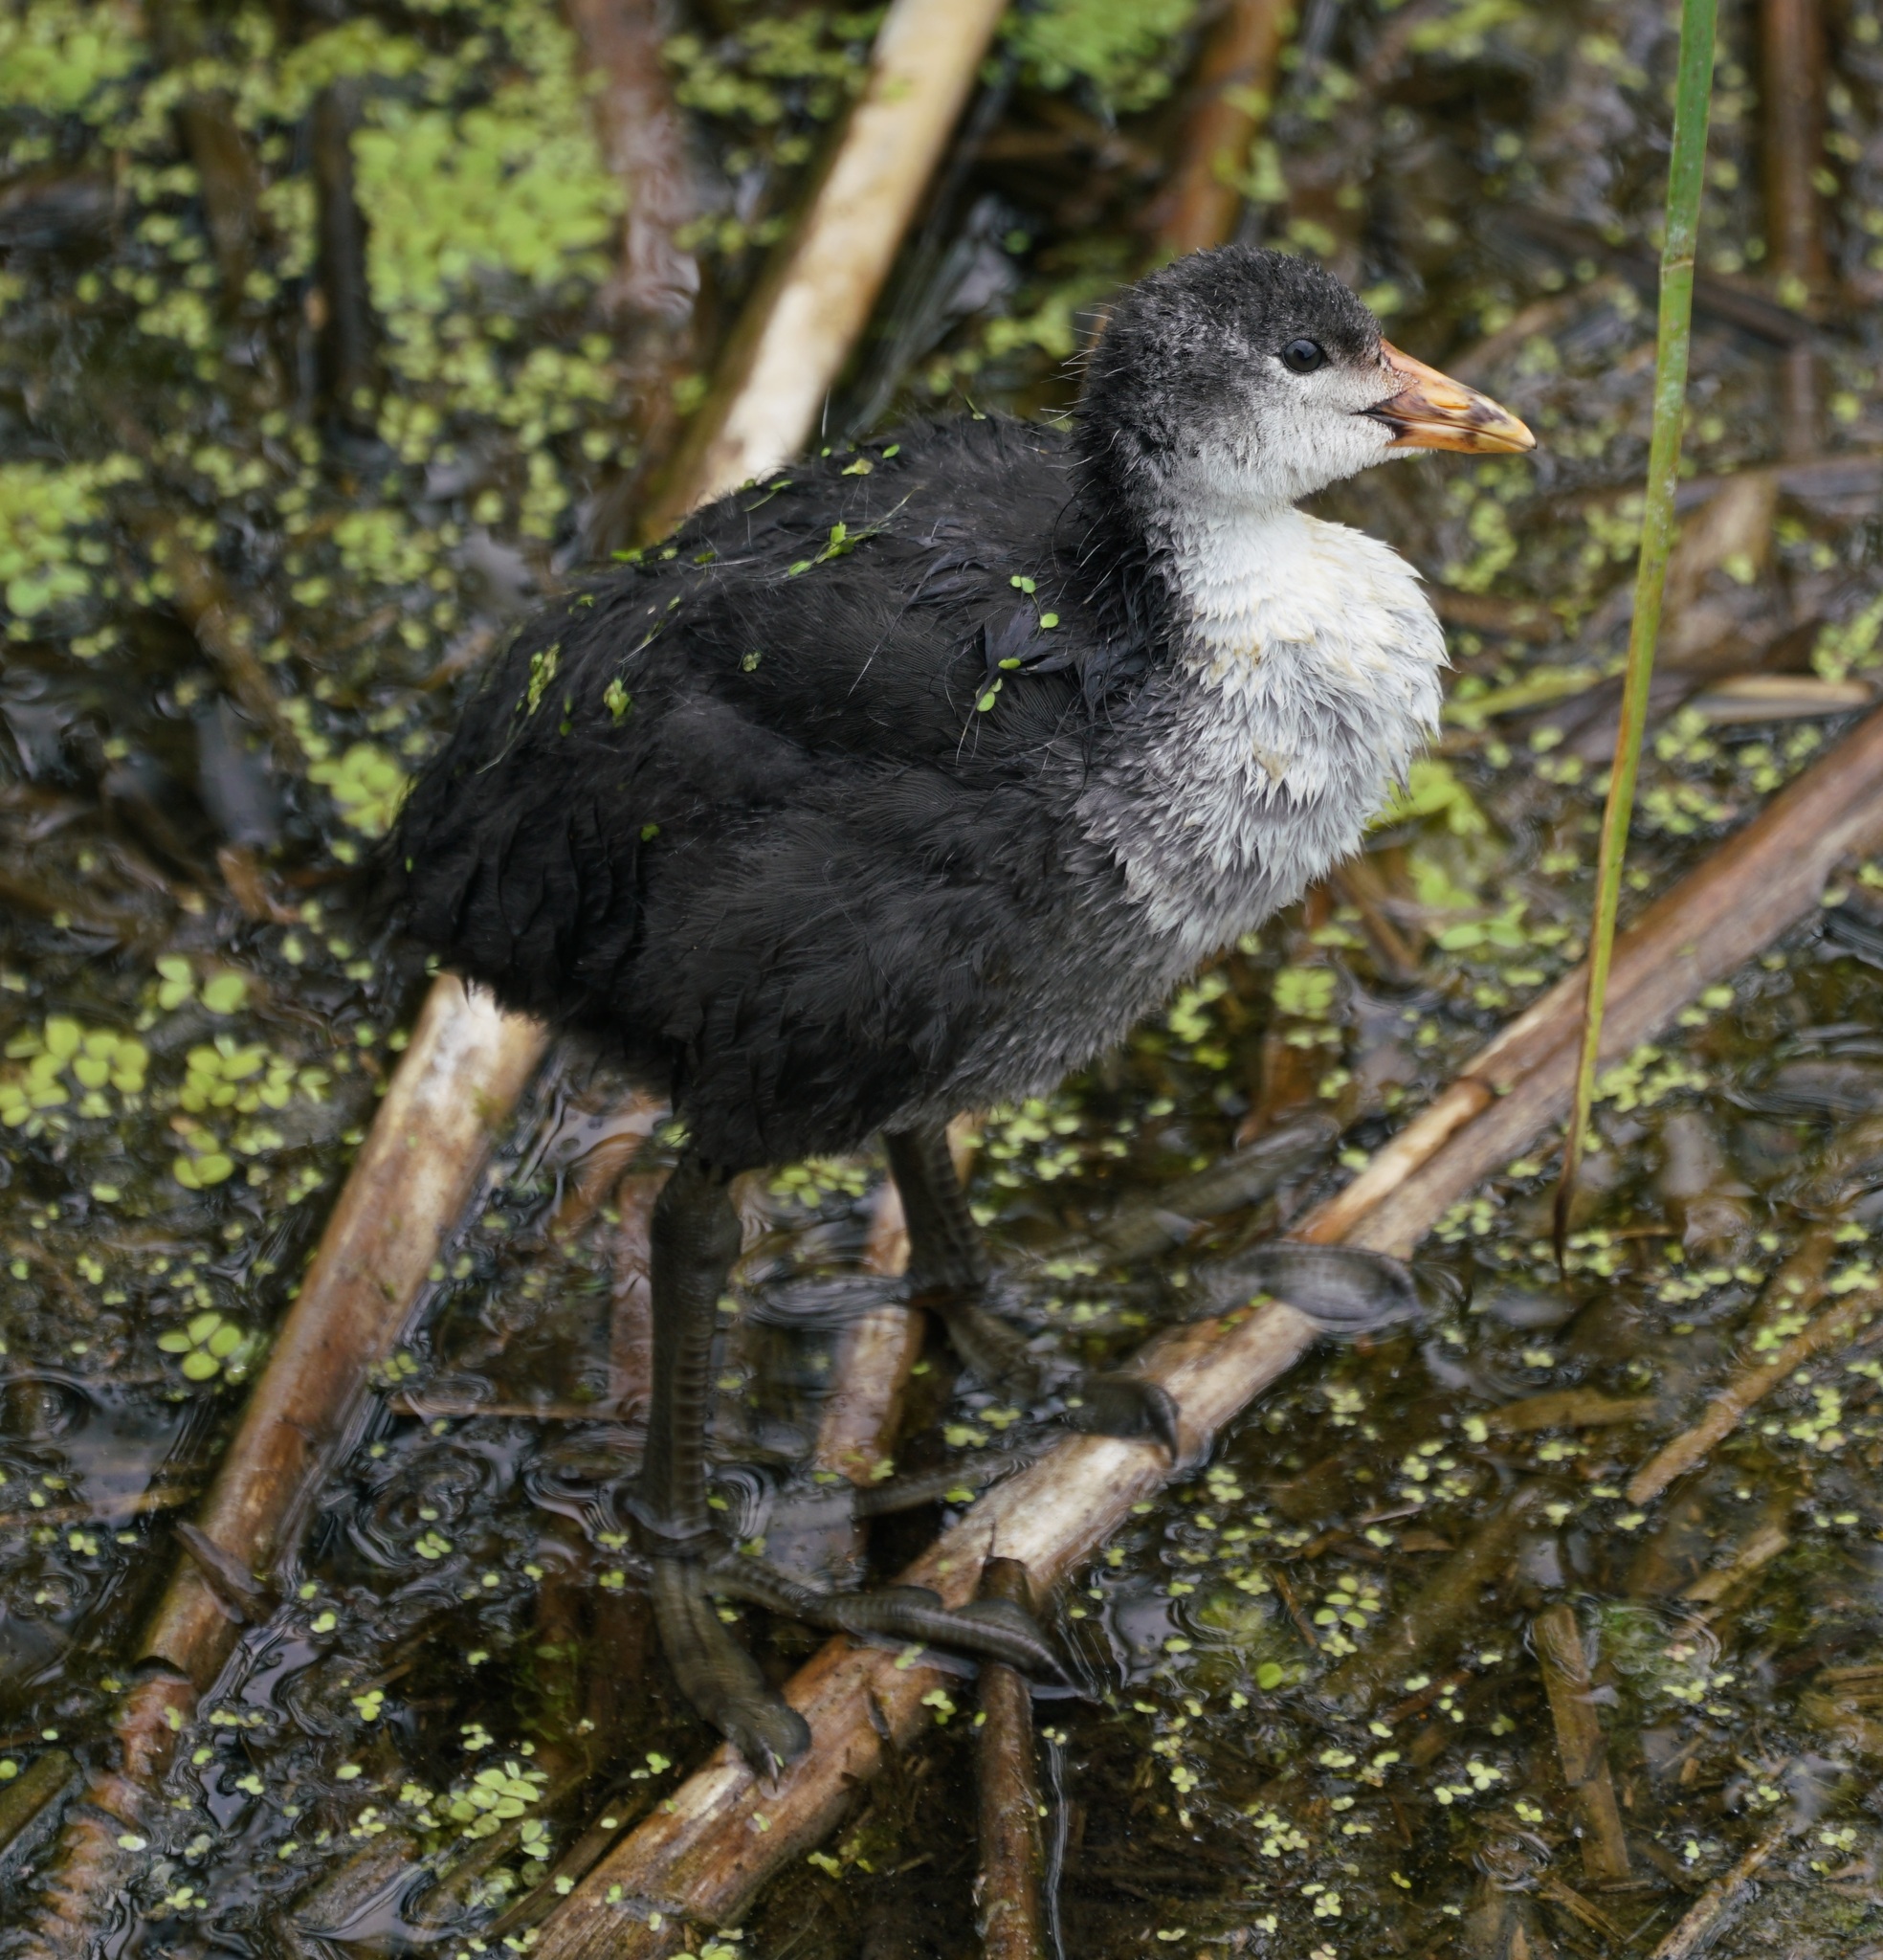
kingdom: Animalia
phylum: Chordata
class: Aves
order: Gruiformes
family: Rallidae
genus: Fulica
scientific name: Fulica atra
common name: Eurasian coot
